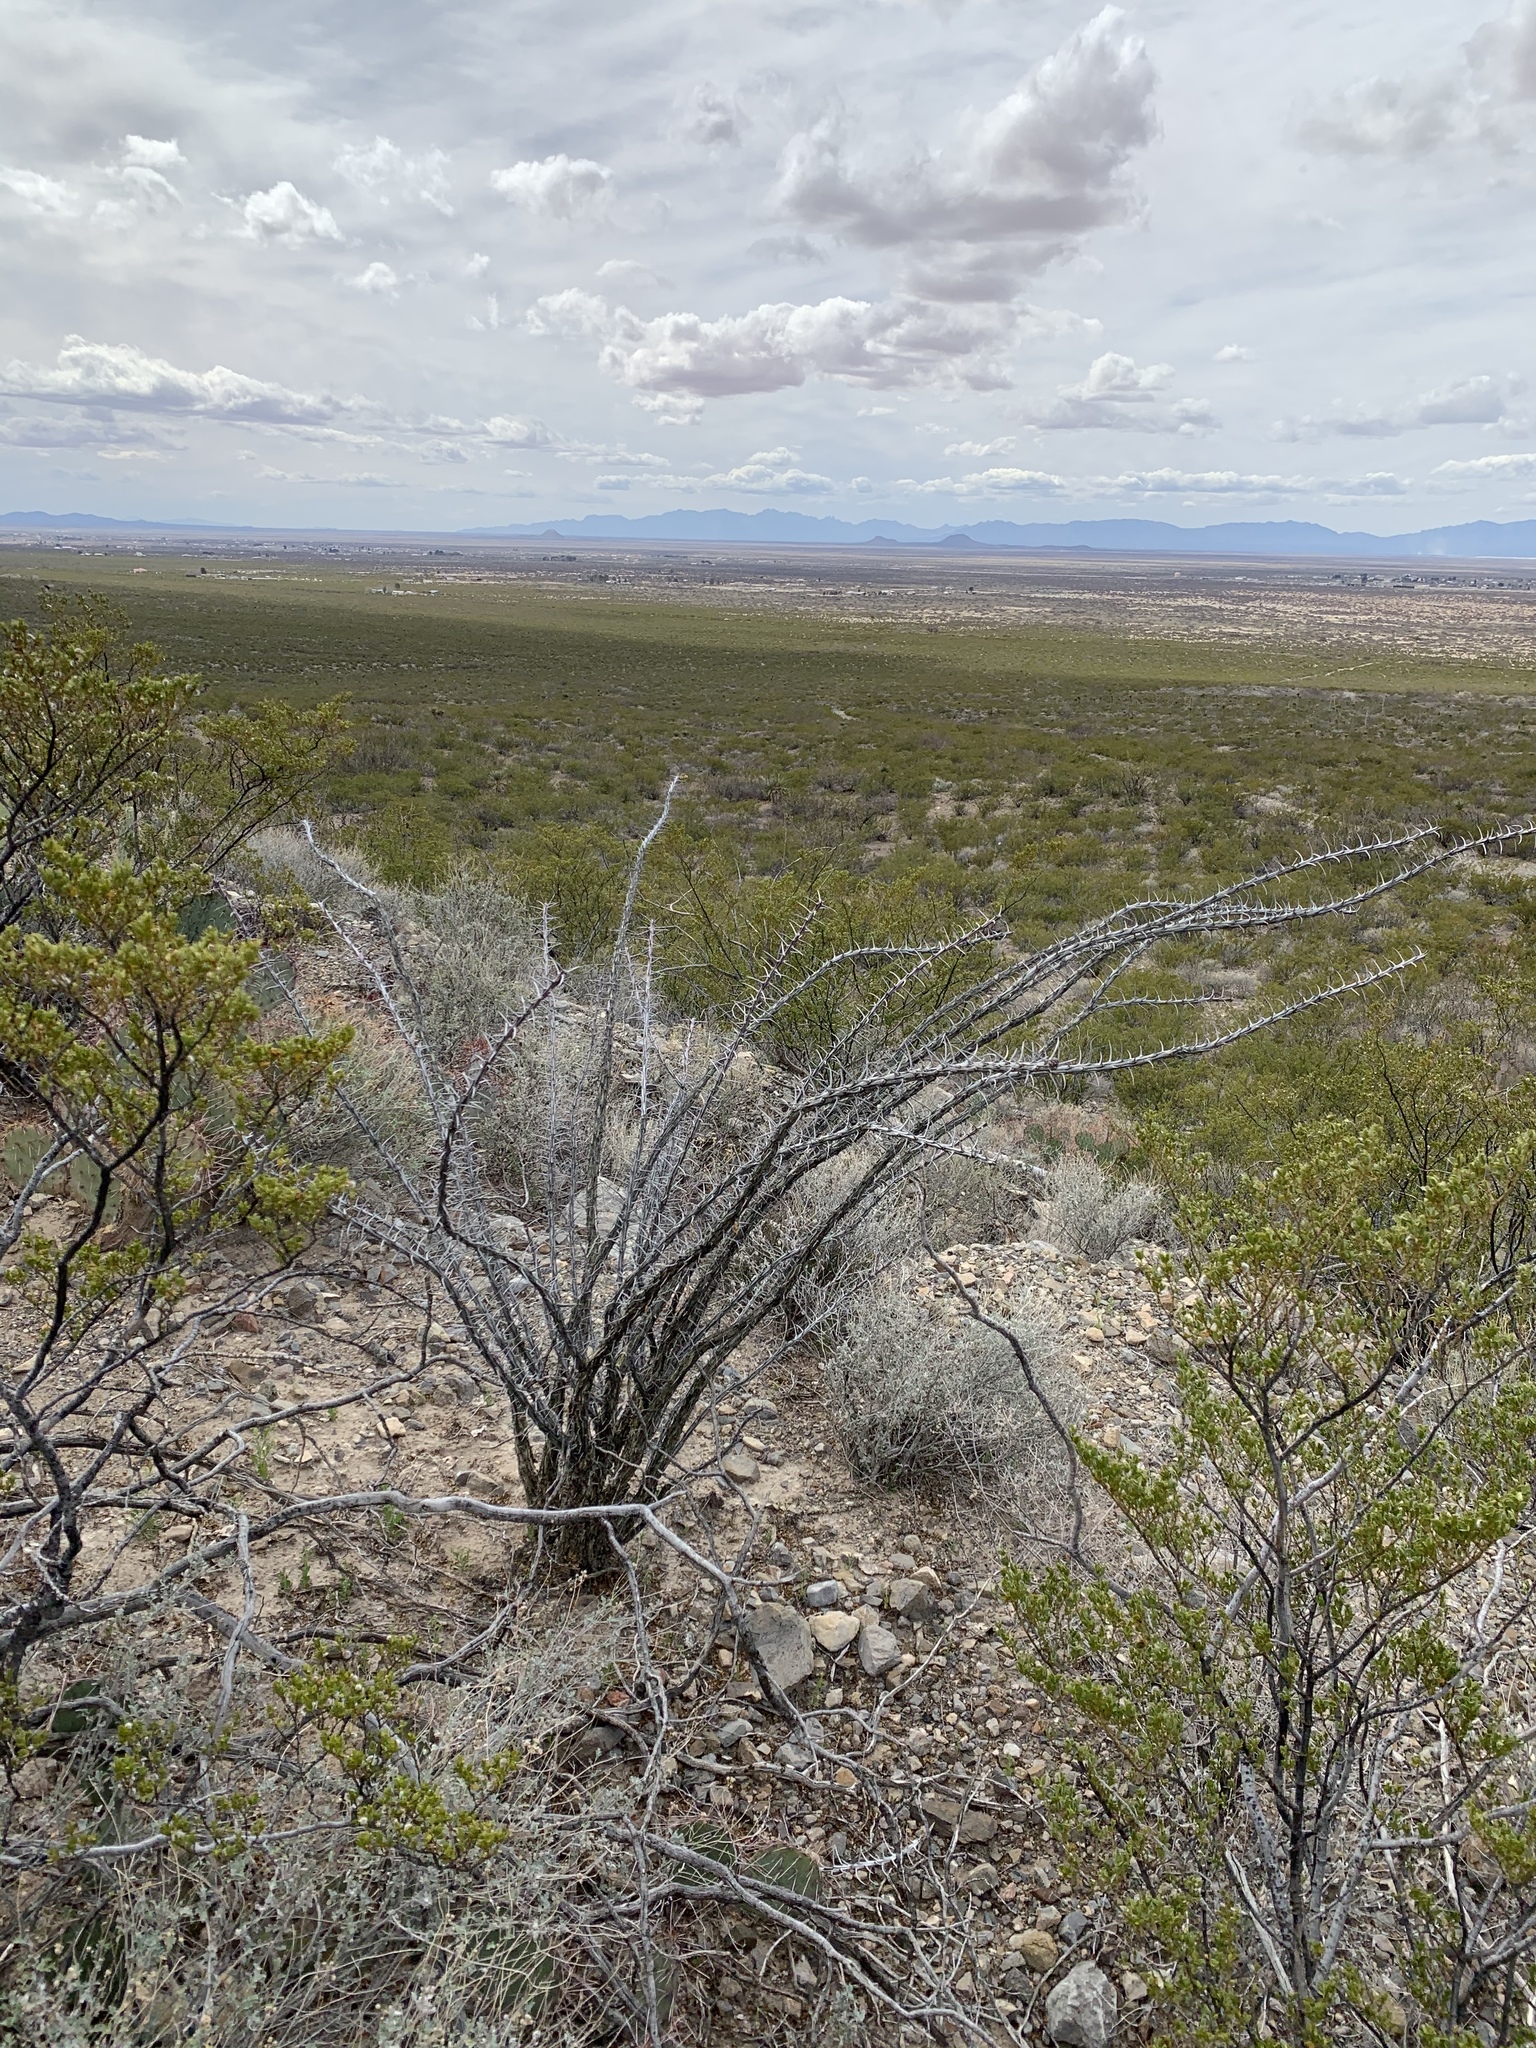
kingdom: Plantae
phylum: Tracheophyta
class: Magnoliopsida
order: Ericales
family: Fouquieriaceae
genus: Fouquieria
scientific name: Fouquieria splendens
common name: Vine-cactus
